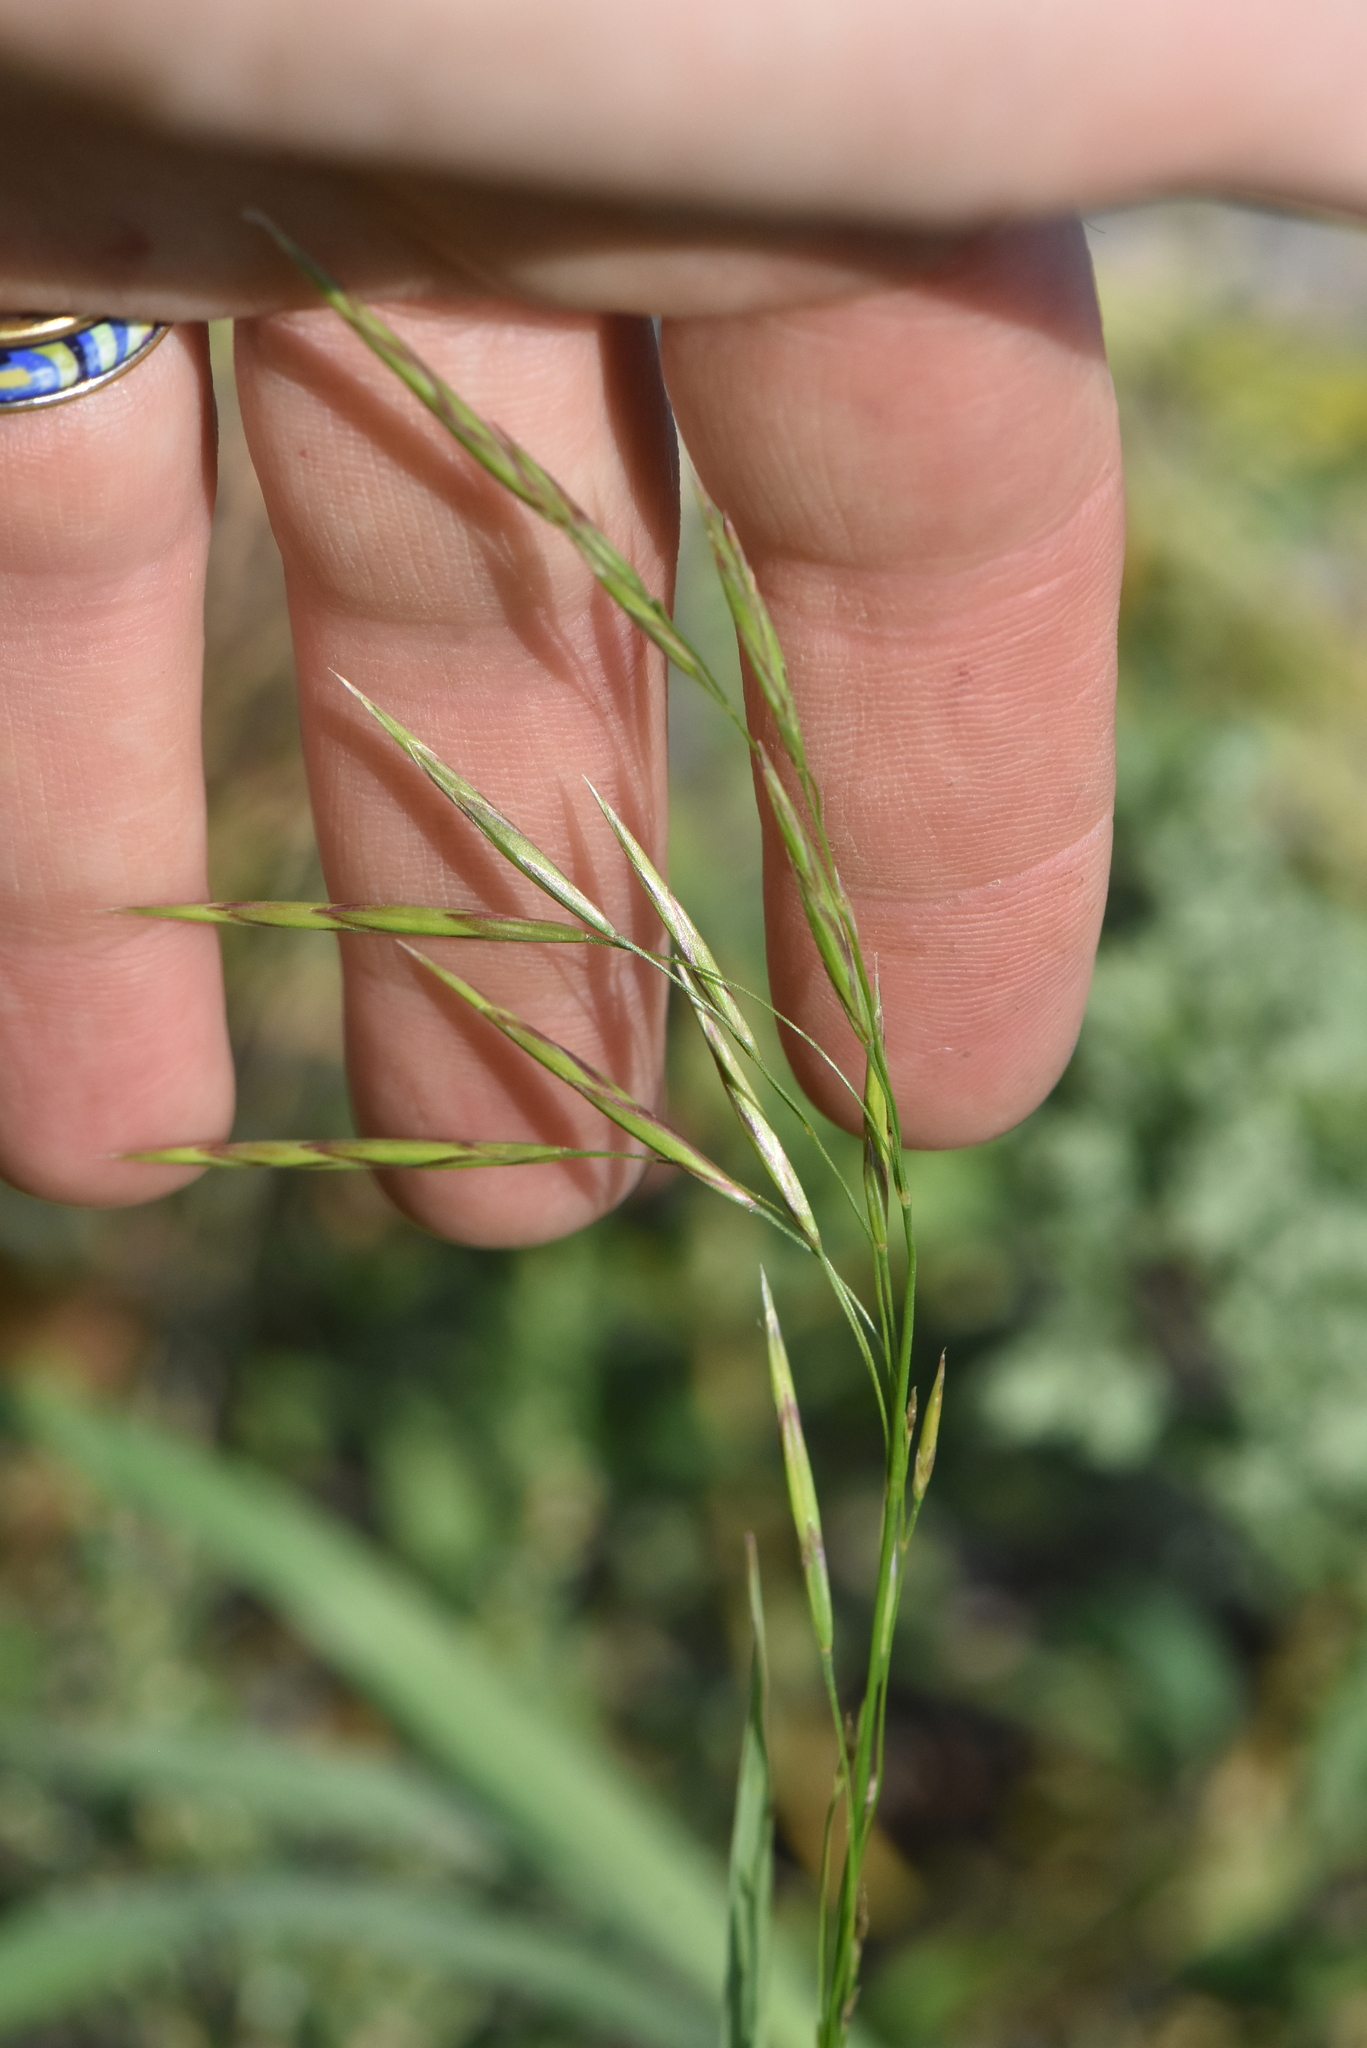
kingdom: Plantae
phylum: Tracheophyta
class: Liliopsida
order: Poales
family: Poaceae
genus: Bromus
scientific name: Bromus inermis
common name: Smooth brome
